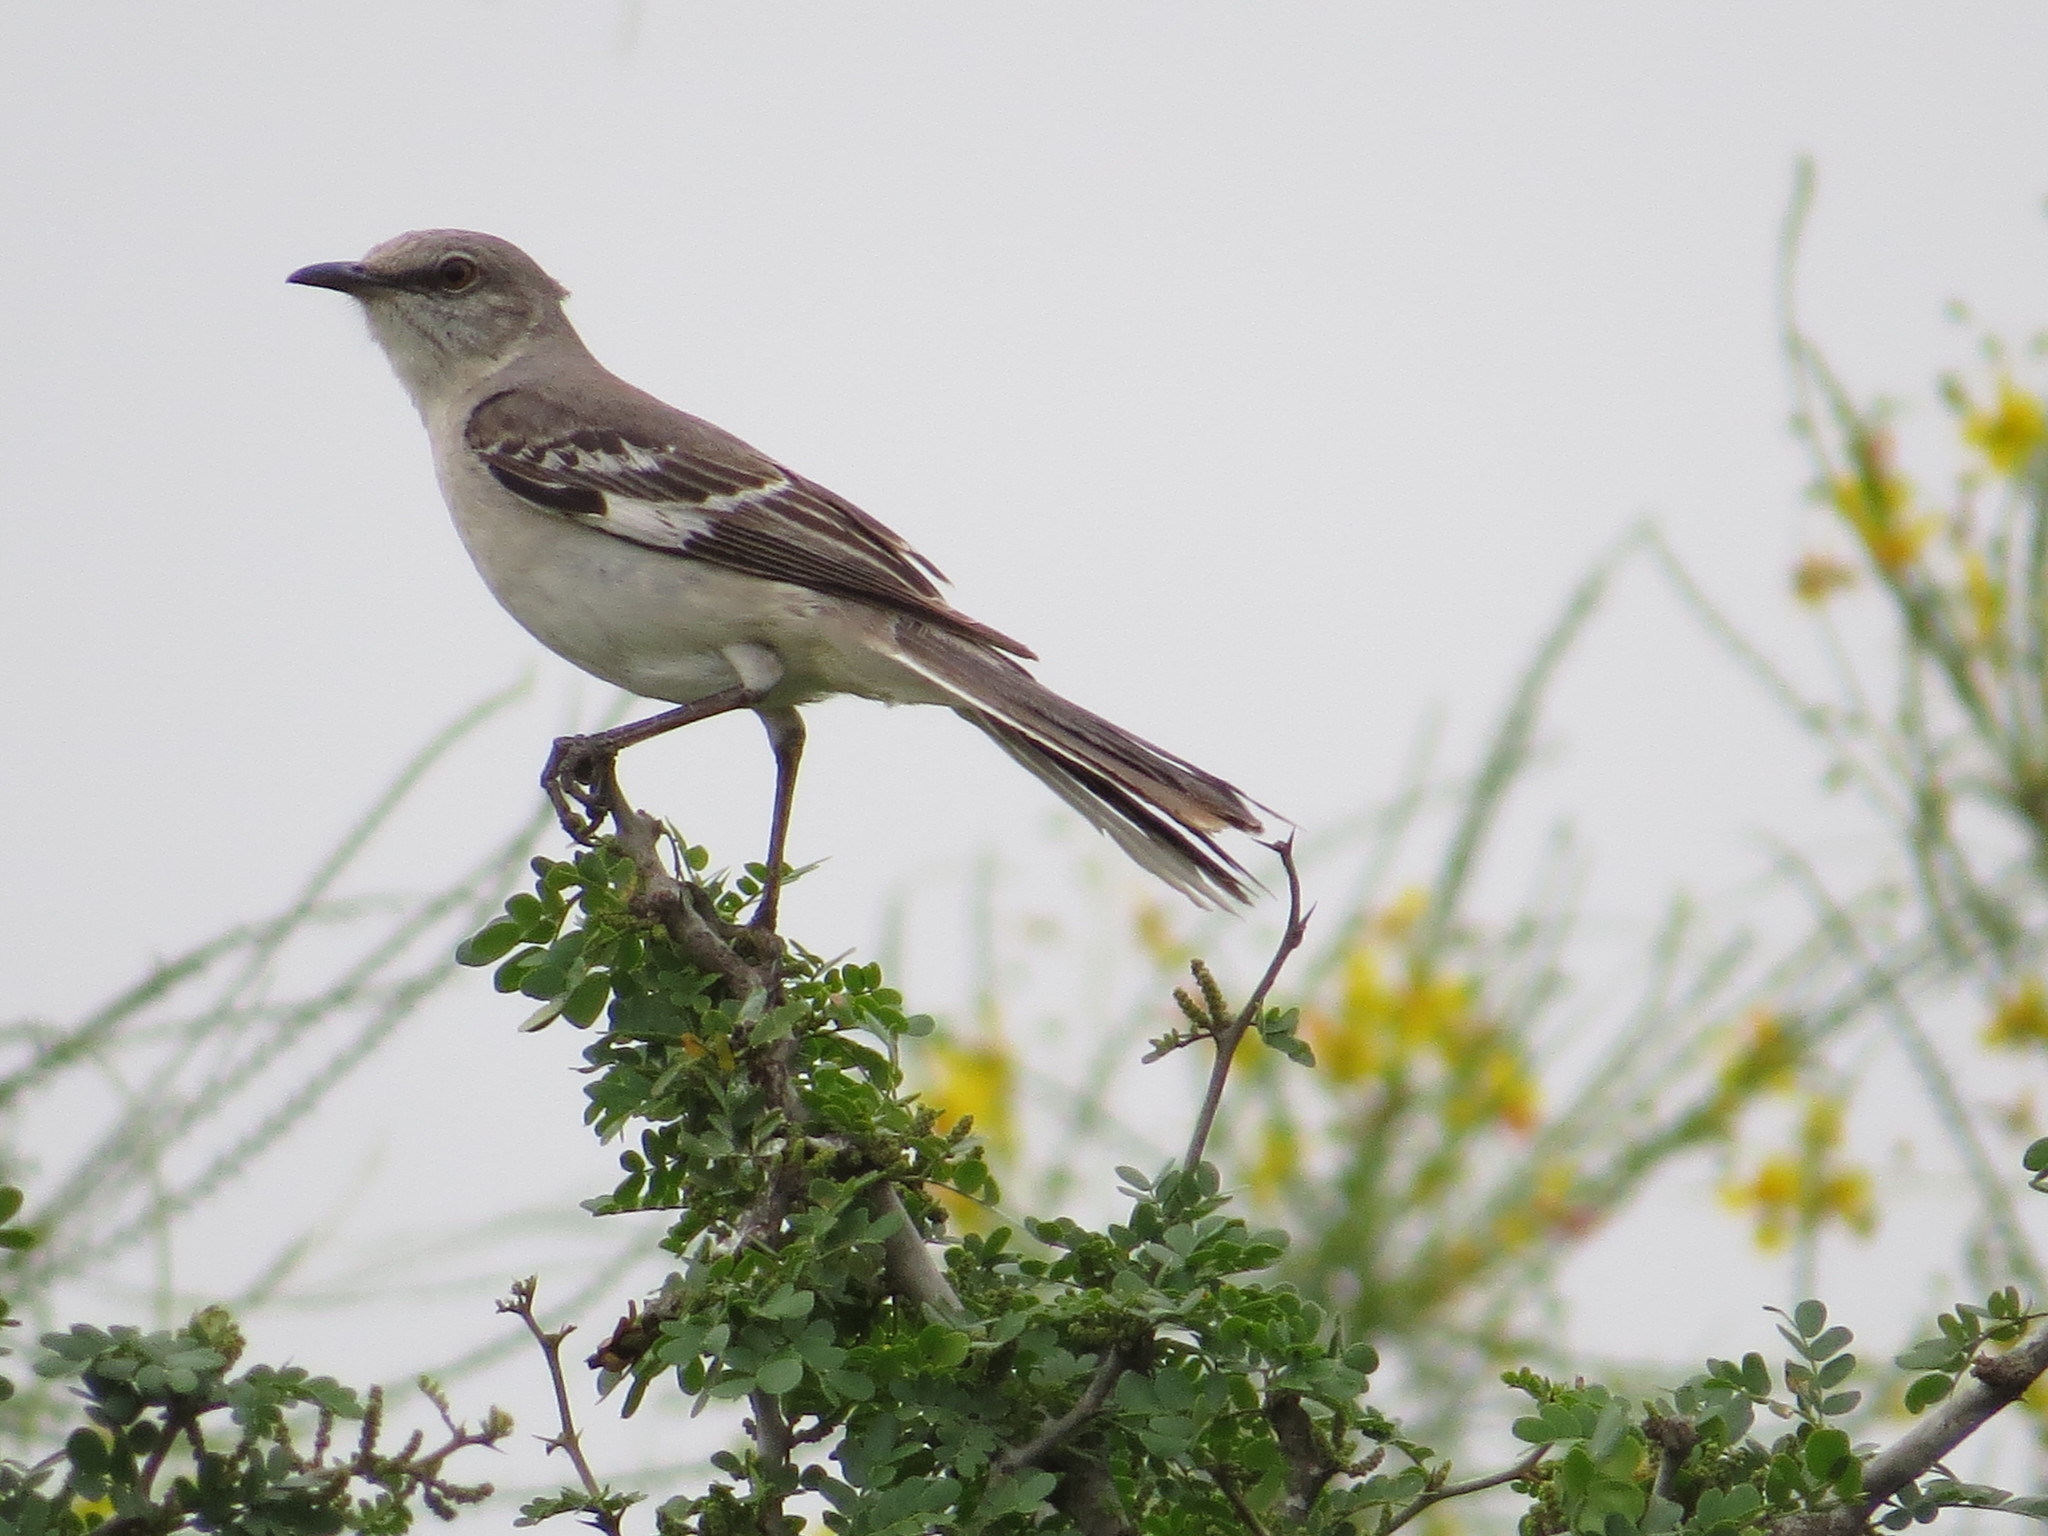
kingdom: Animalia
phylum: Chordata
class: Aves
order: Passeriformes
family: Mimidae
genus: Mimus
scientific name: Mimus polyglottos
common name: Northern mockingbird
